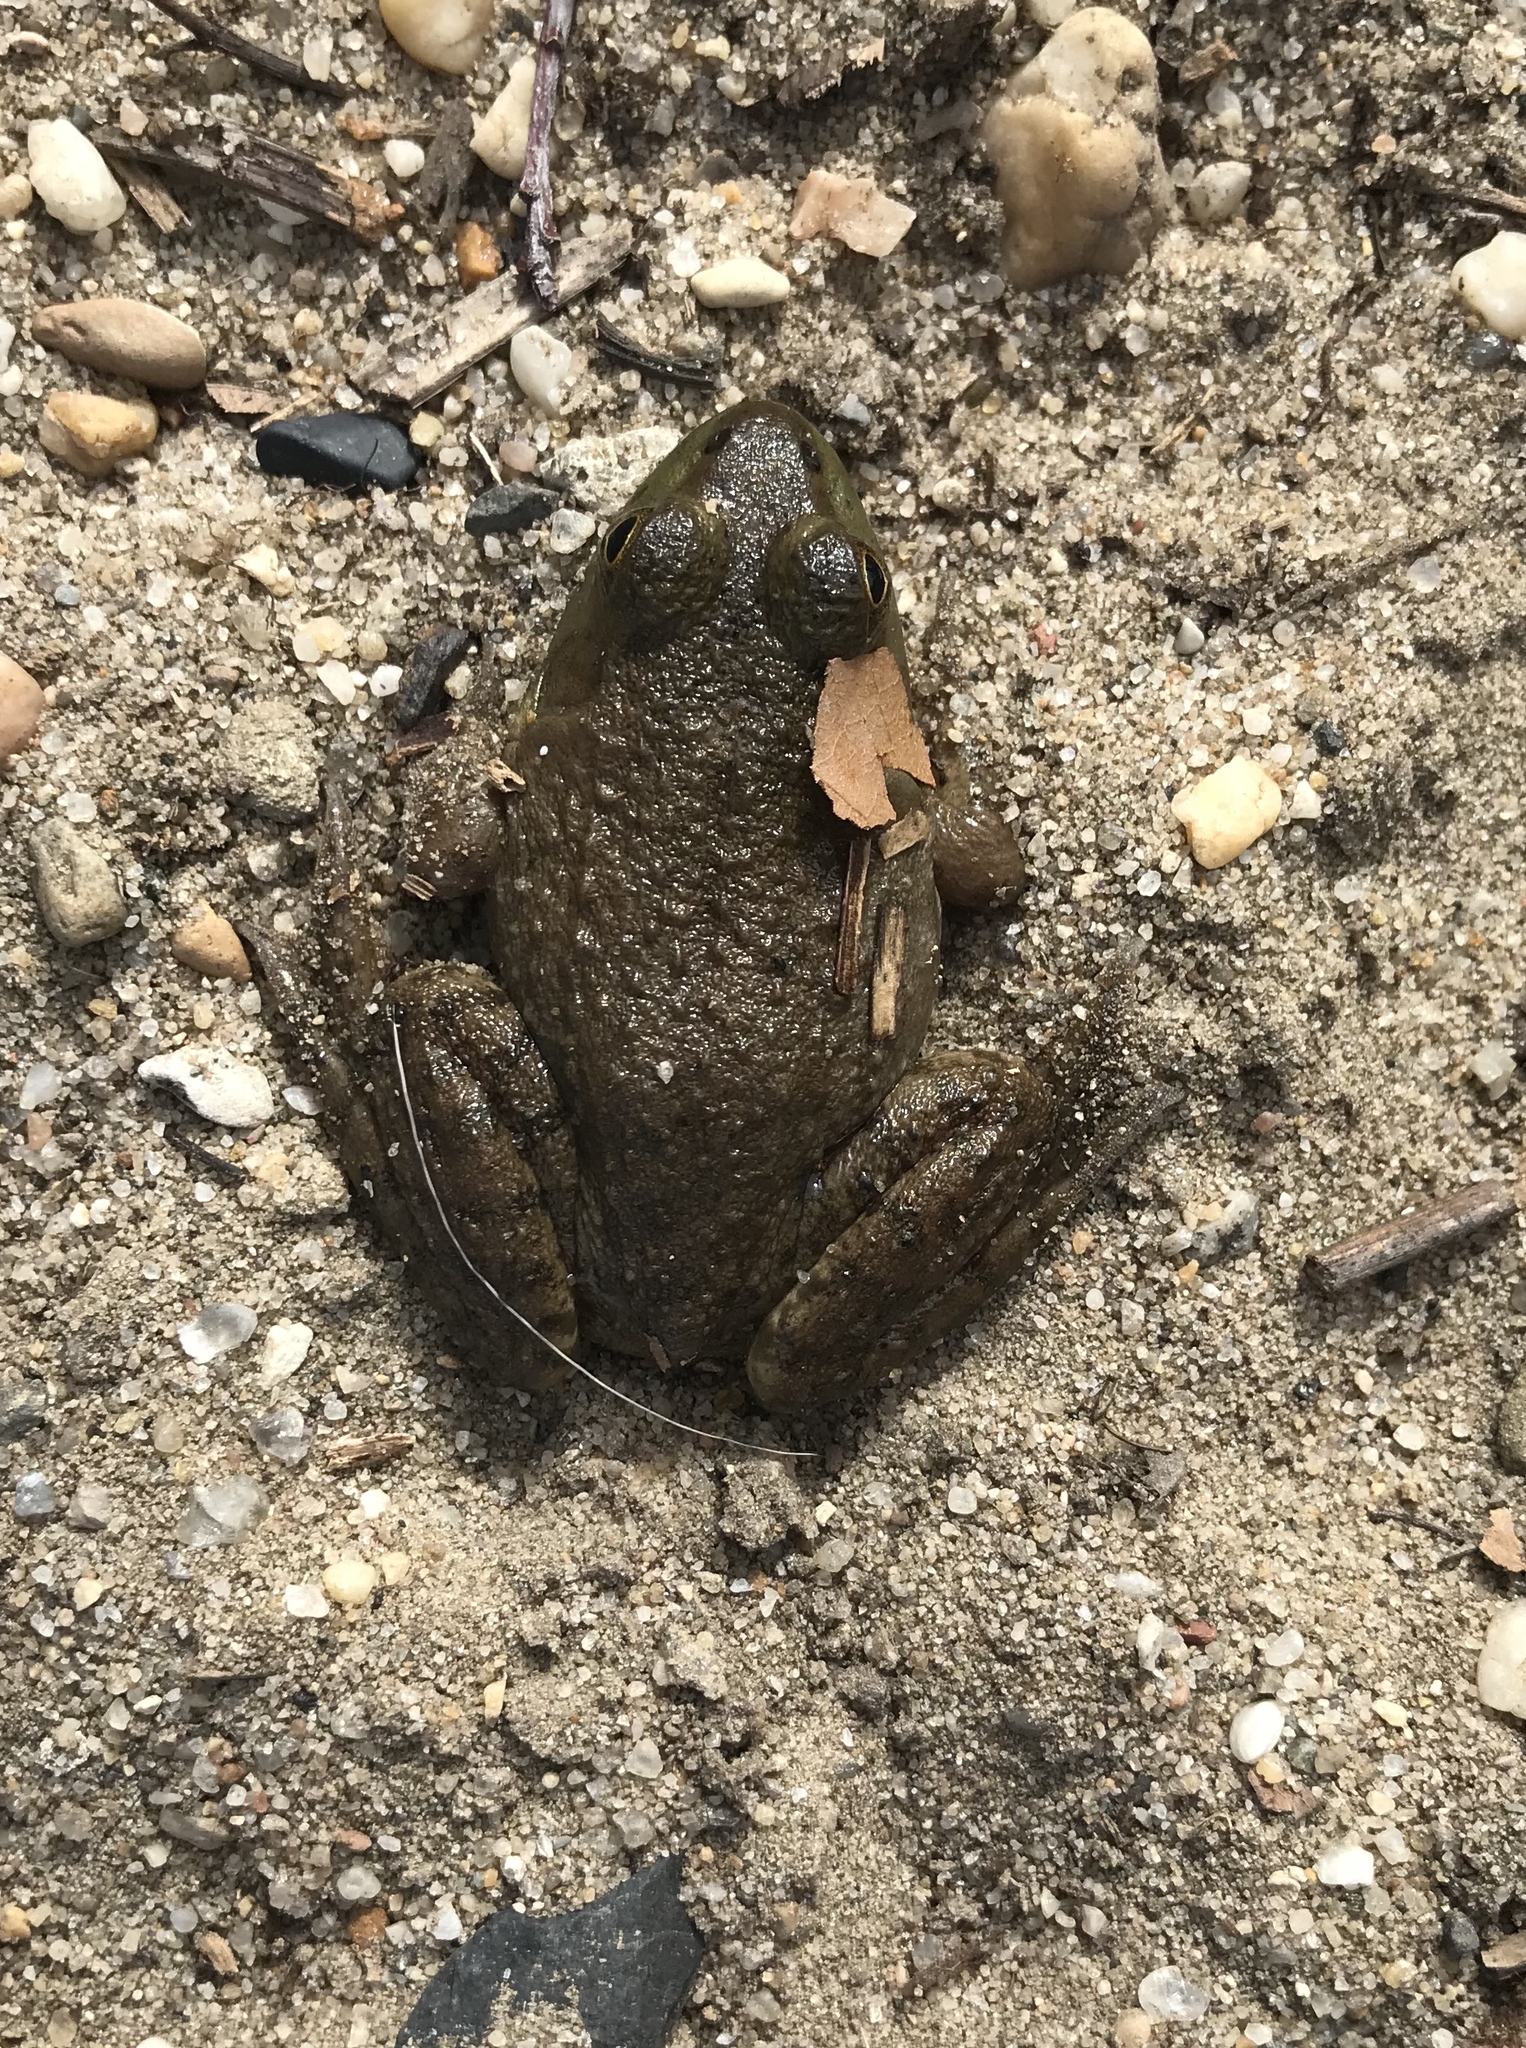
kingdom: Animalia
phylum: Chordata
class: Amphibia
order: Anura
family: Ranidae
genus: Lithobates
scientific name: Lithobates catesbeianus
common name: American bullfrog
